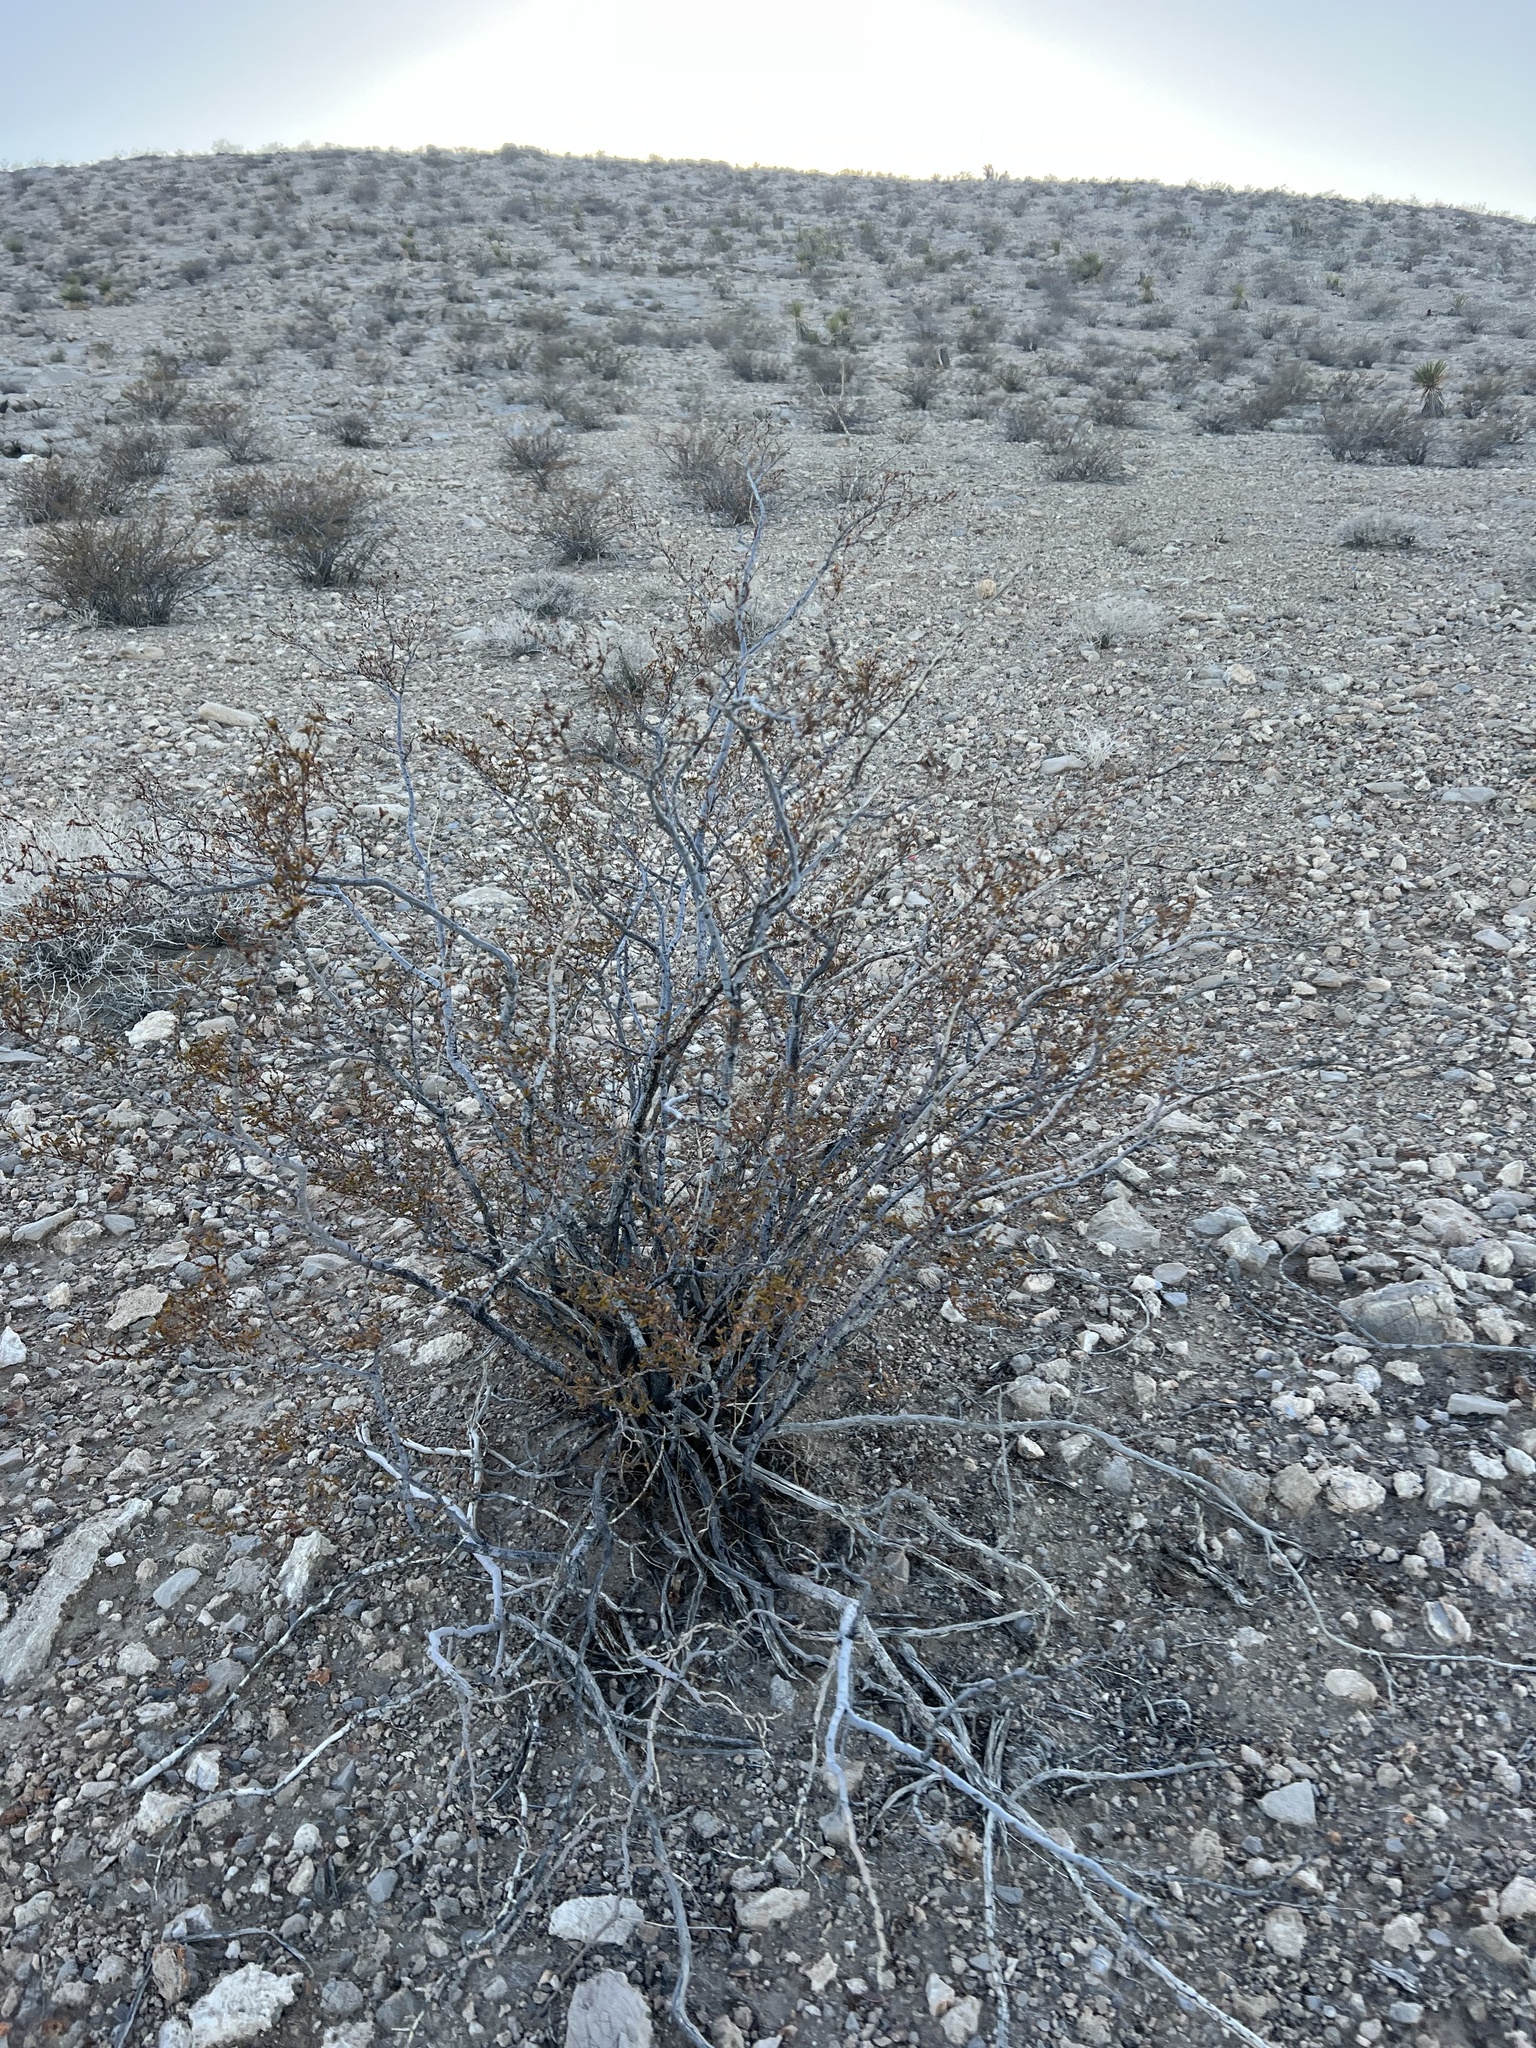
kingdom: Plantae
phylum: Tracheophyta
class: Magnoliopsida
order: Zygophyllales
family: Zygophyllaceae
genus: Larrea
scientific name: Larrea tridentata
